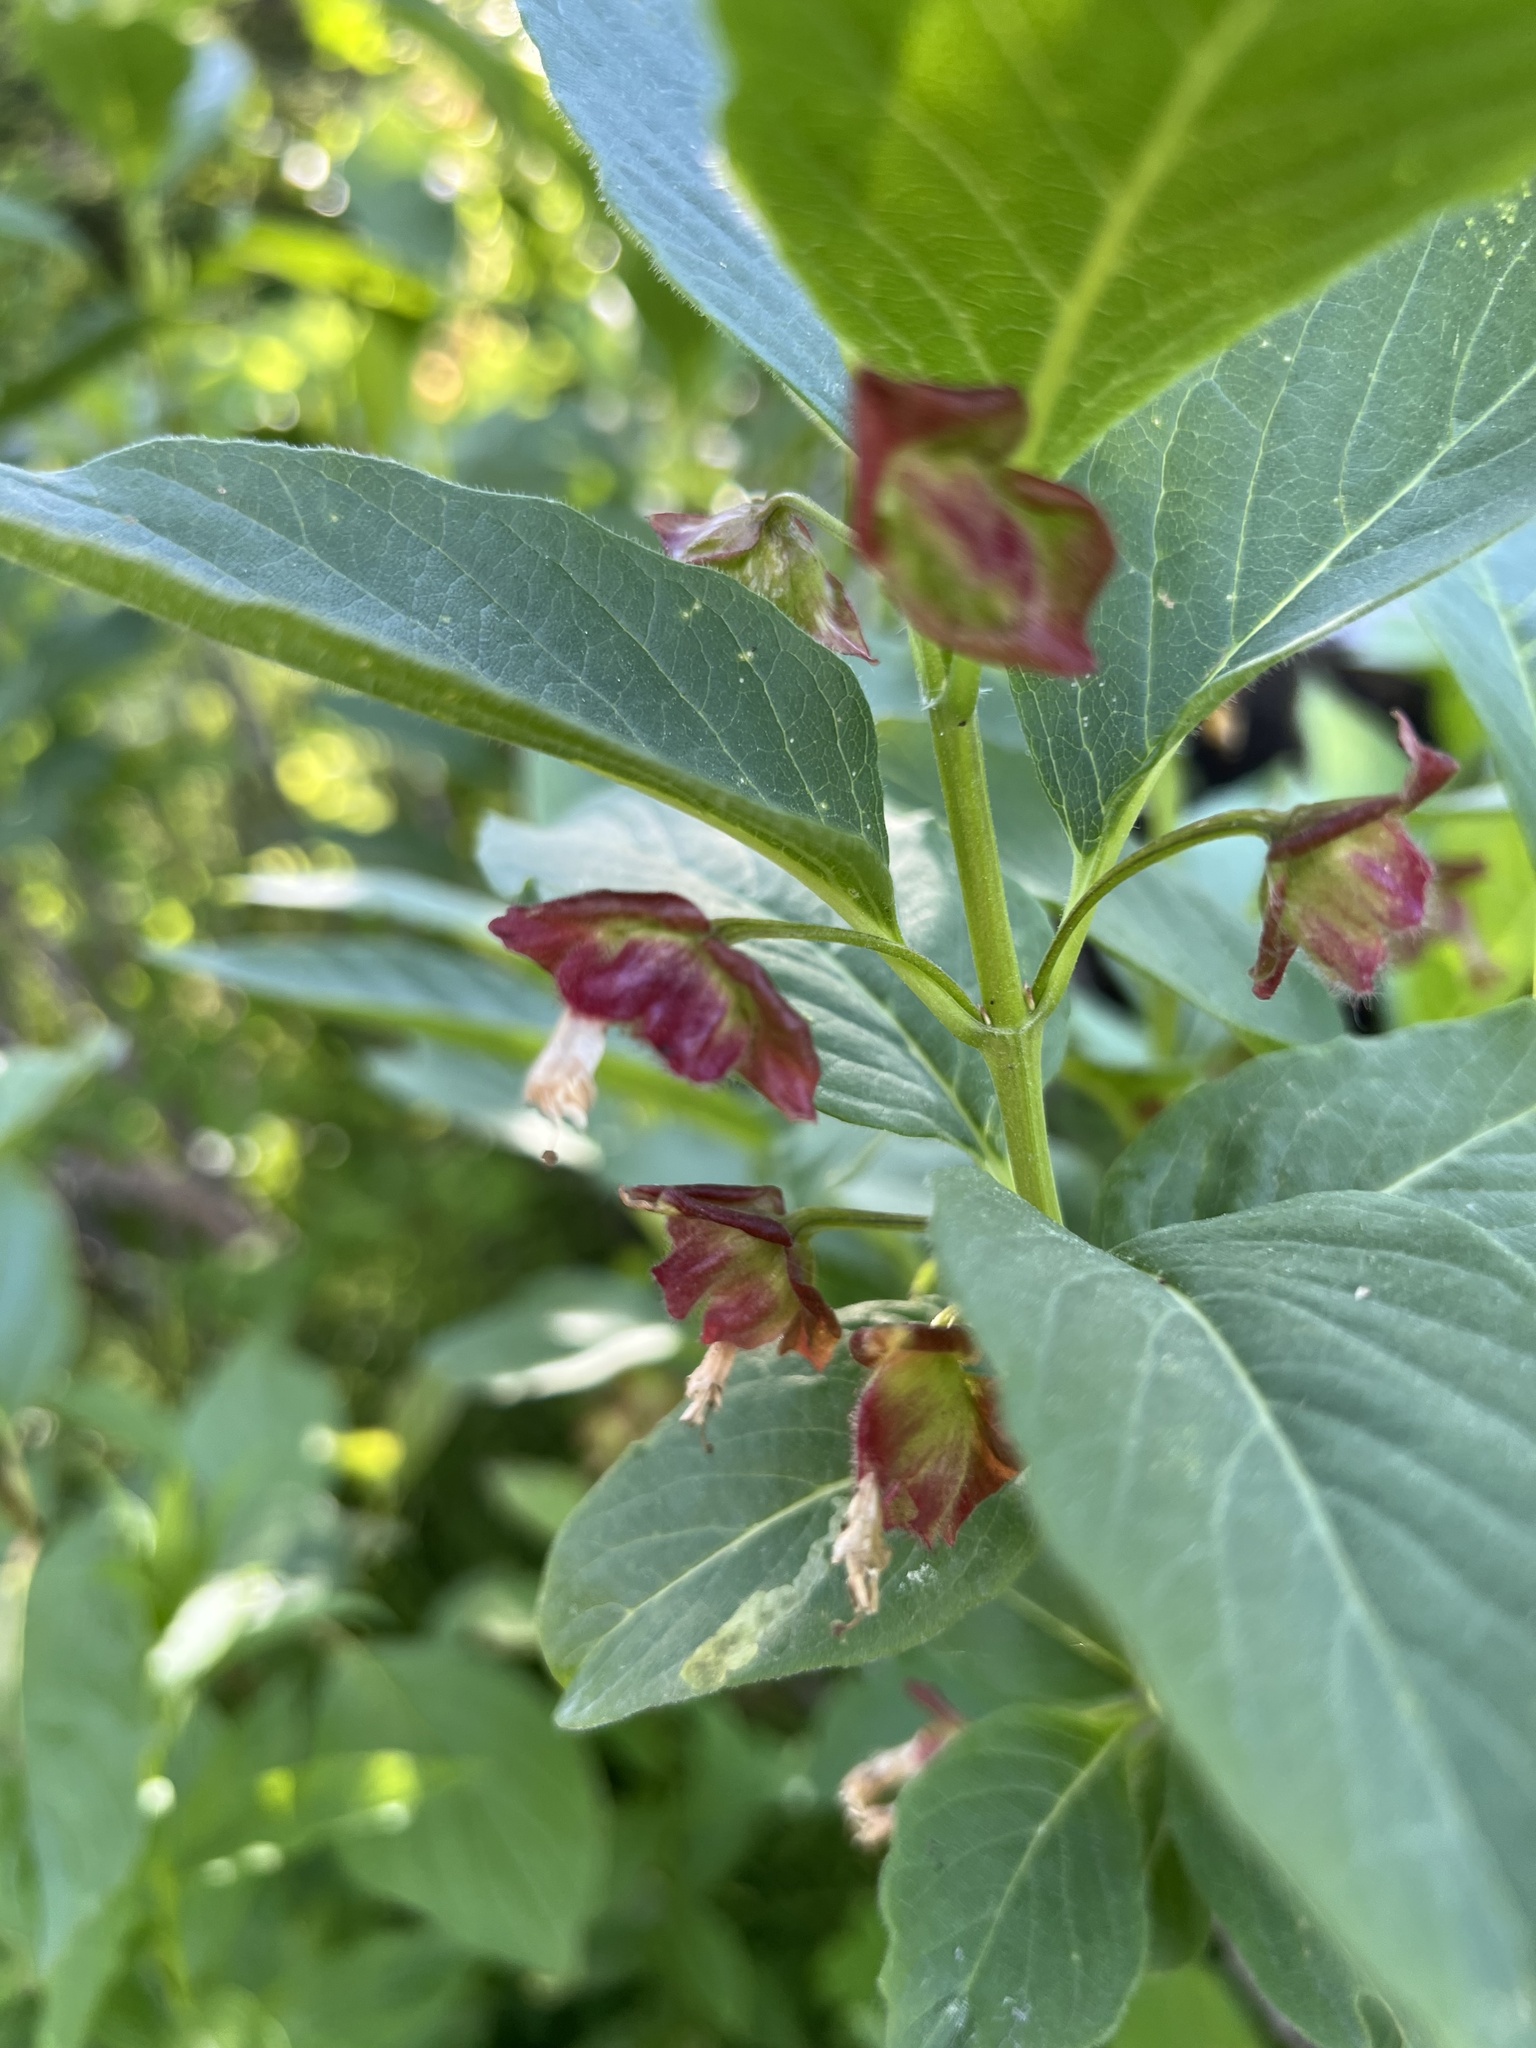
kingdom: Plantae
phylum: Tracheophyta
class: Magnoliopsida
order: Dipsacales
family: Caprifoliaceae
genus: Lonicera
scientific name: Lonicera involucrata
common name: Californian honeysuckle
